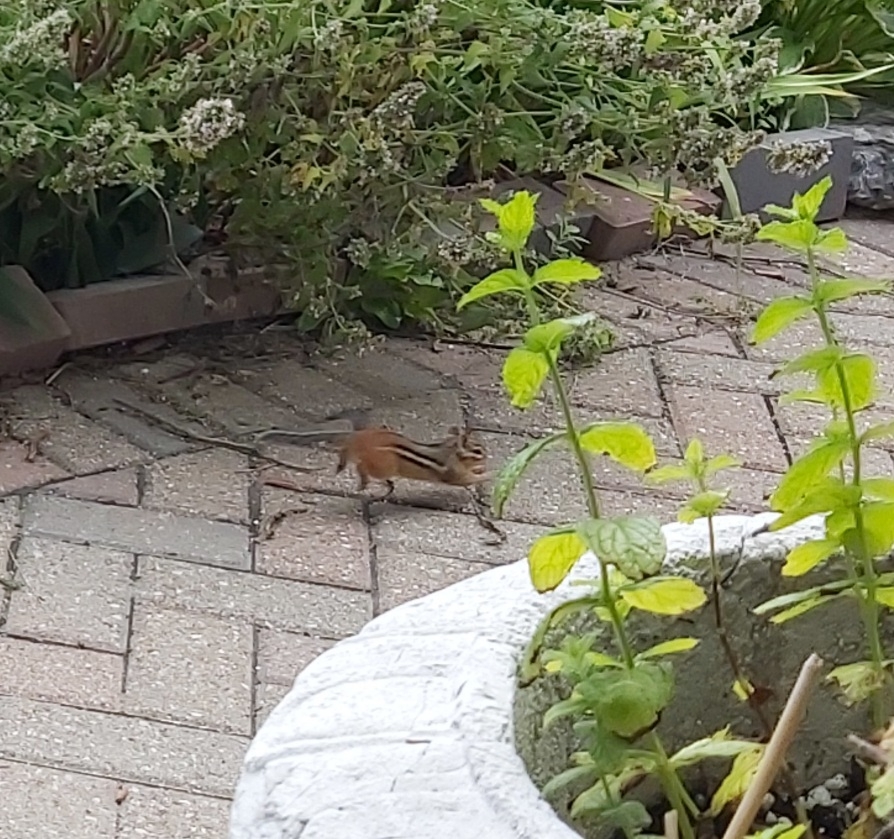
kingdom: Animalia
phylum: Chordata
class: Mammalia
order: Rodentia
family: Sciuridae
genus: Tamias
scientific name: Tamias striatus
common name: Eastern chipmunk
